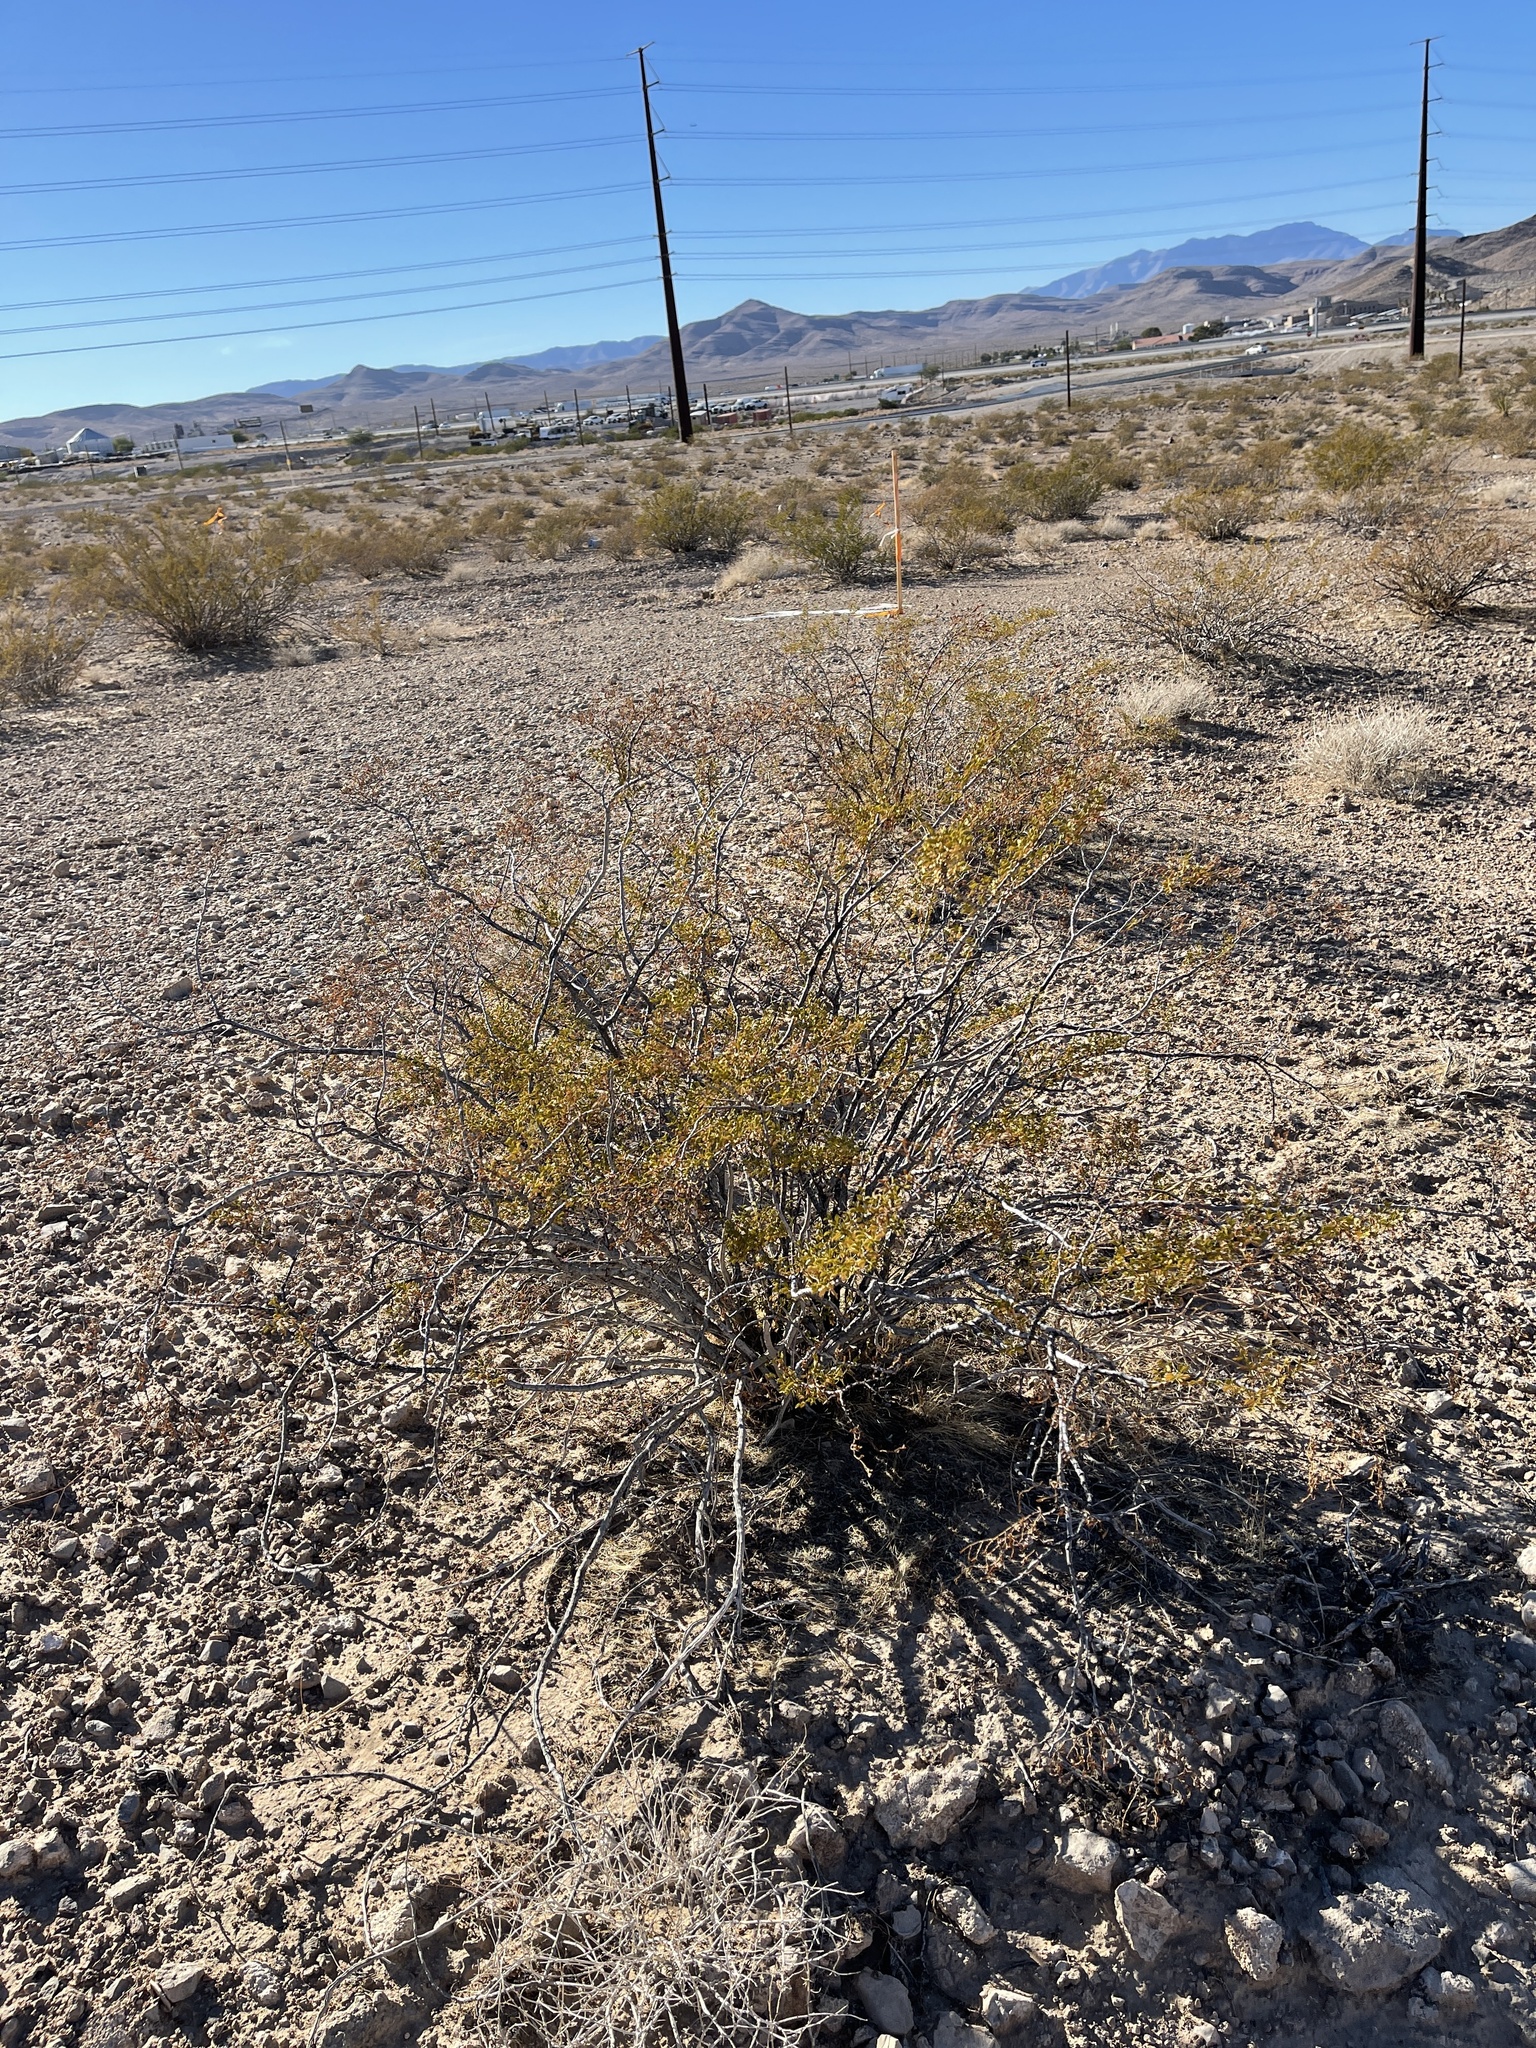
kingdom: Plantae
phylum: Tracheophyta
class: Magnoliopsida
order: Zygophyllales
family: Zygophyllaceae
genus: Larrea
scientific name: Larrea tridentata
